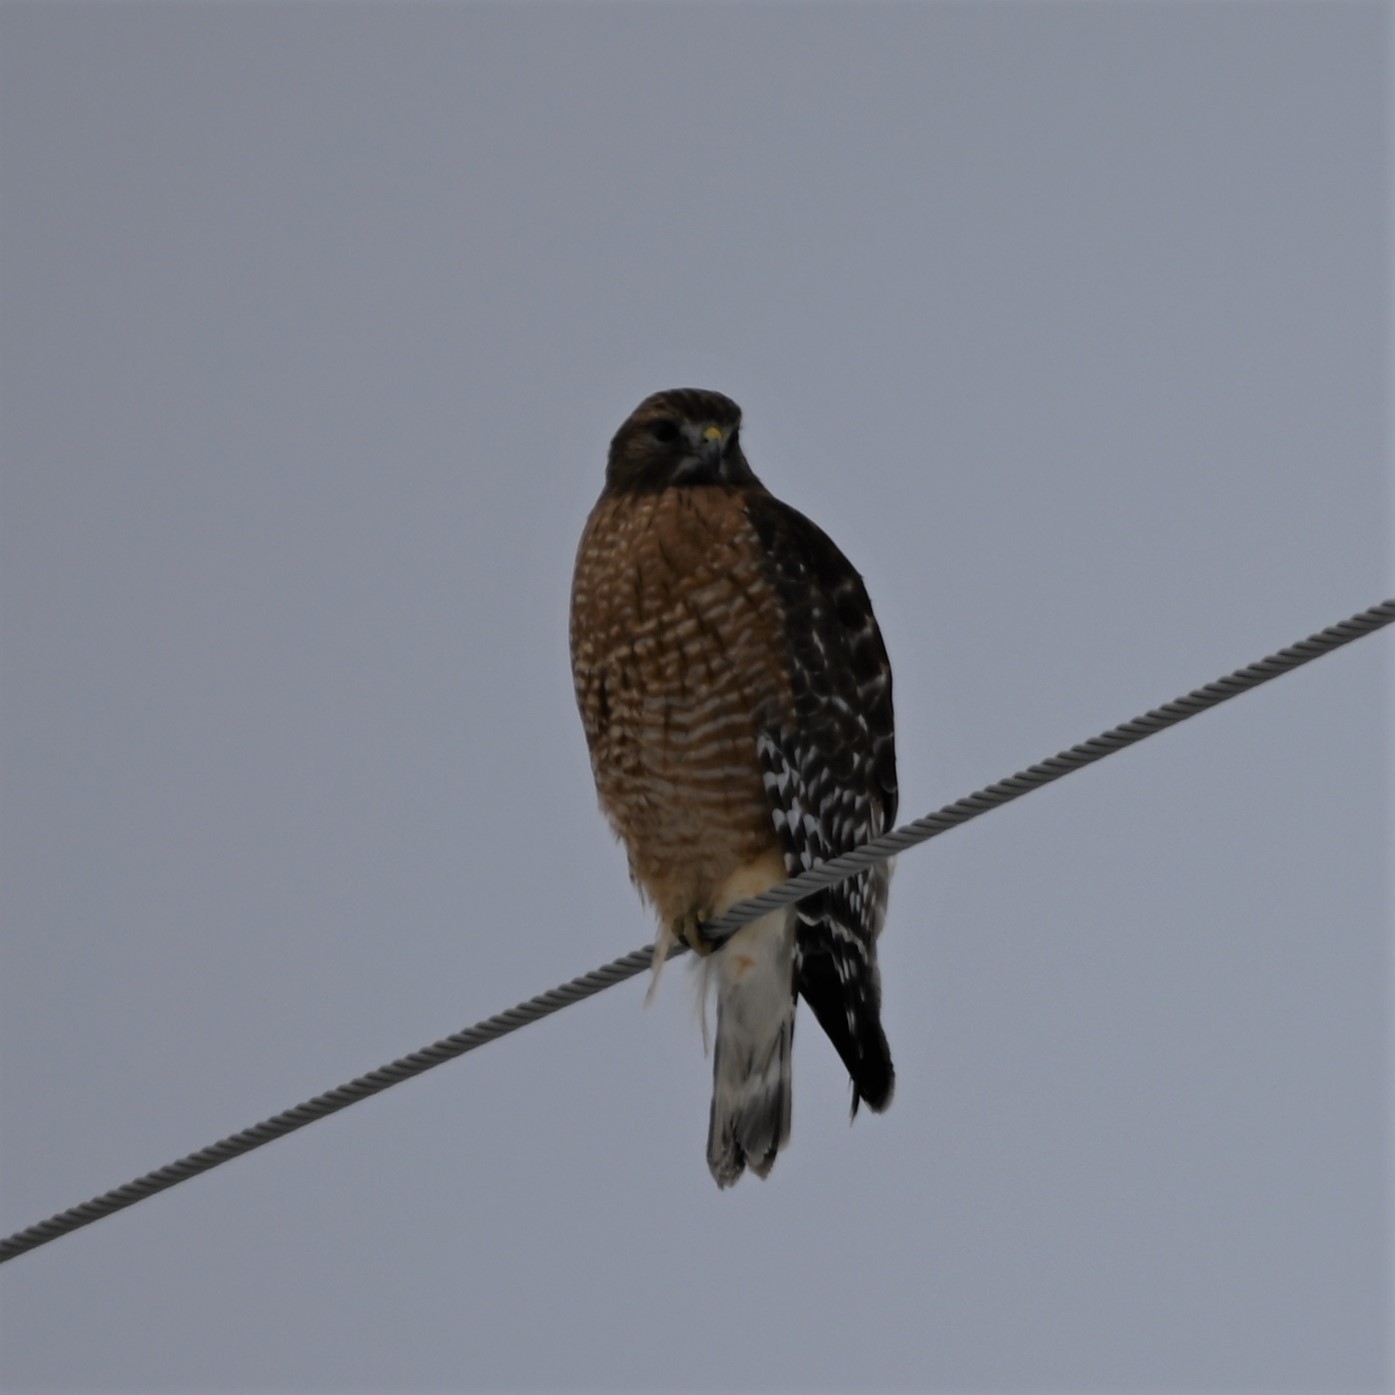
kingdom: Animalia
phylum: Chordata
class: Aves
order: Accipitriformes
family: Accipitridae
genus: Buteo
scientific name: Buteo lineatus
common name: Red-shouldered hawk
